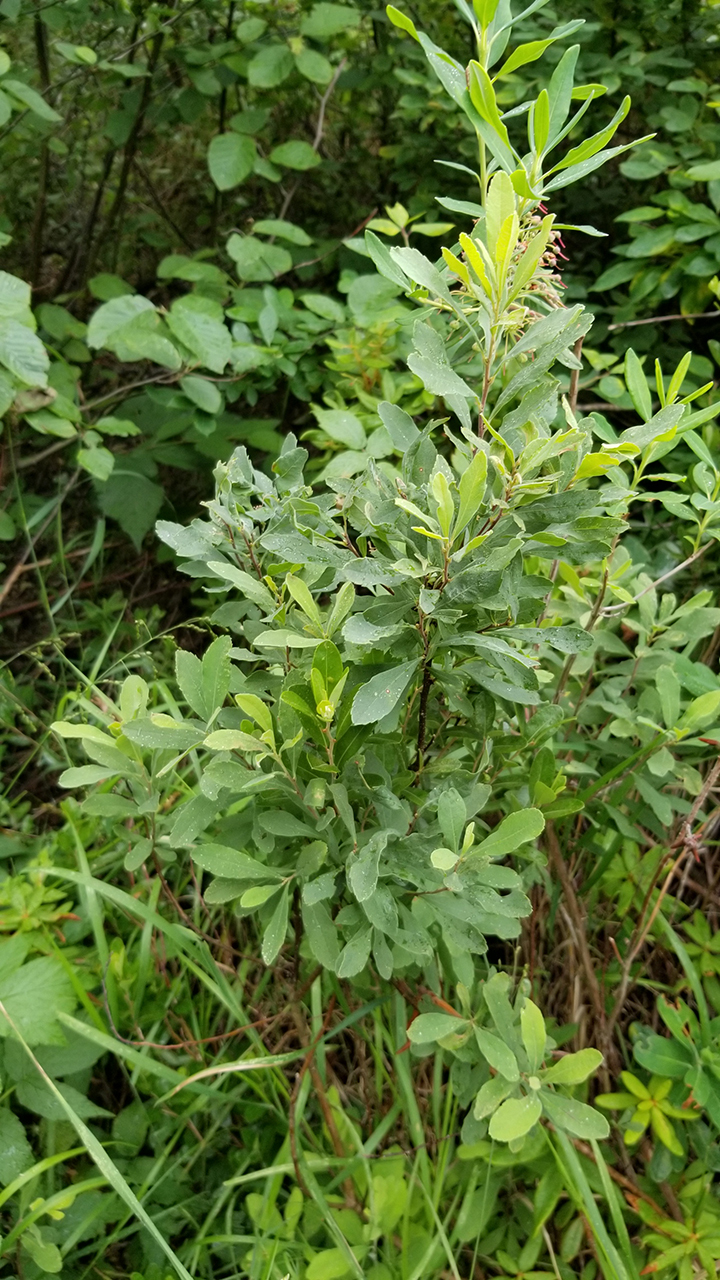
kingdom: Plantae
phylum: Tracheophyta
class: Magnoliopsida
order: Fagales
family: Myricaceae
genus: Myrica
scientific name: Myrica gale
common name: Sweet gale
